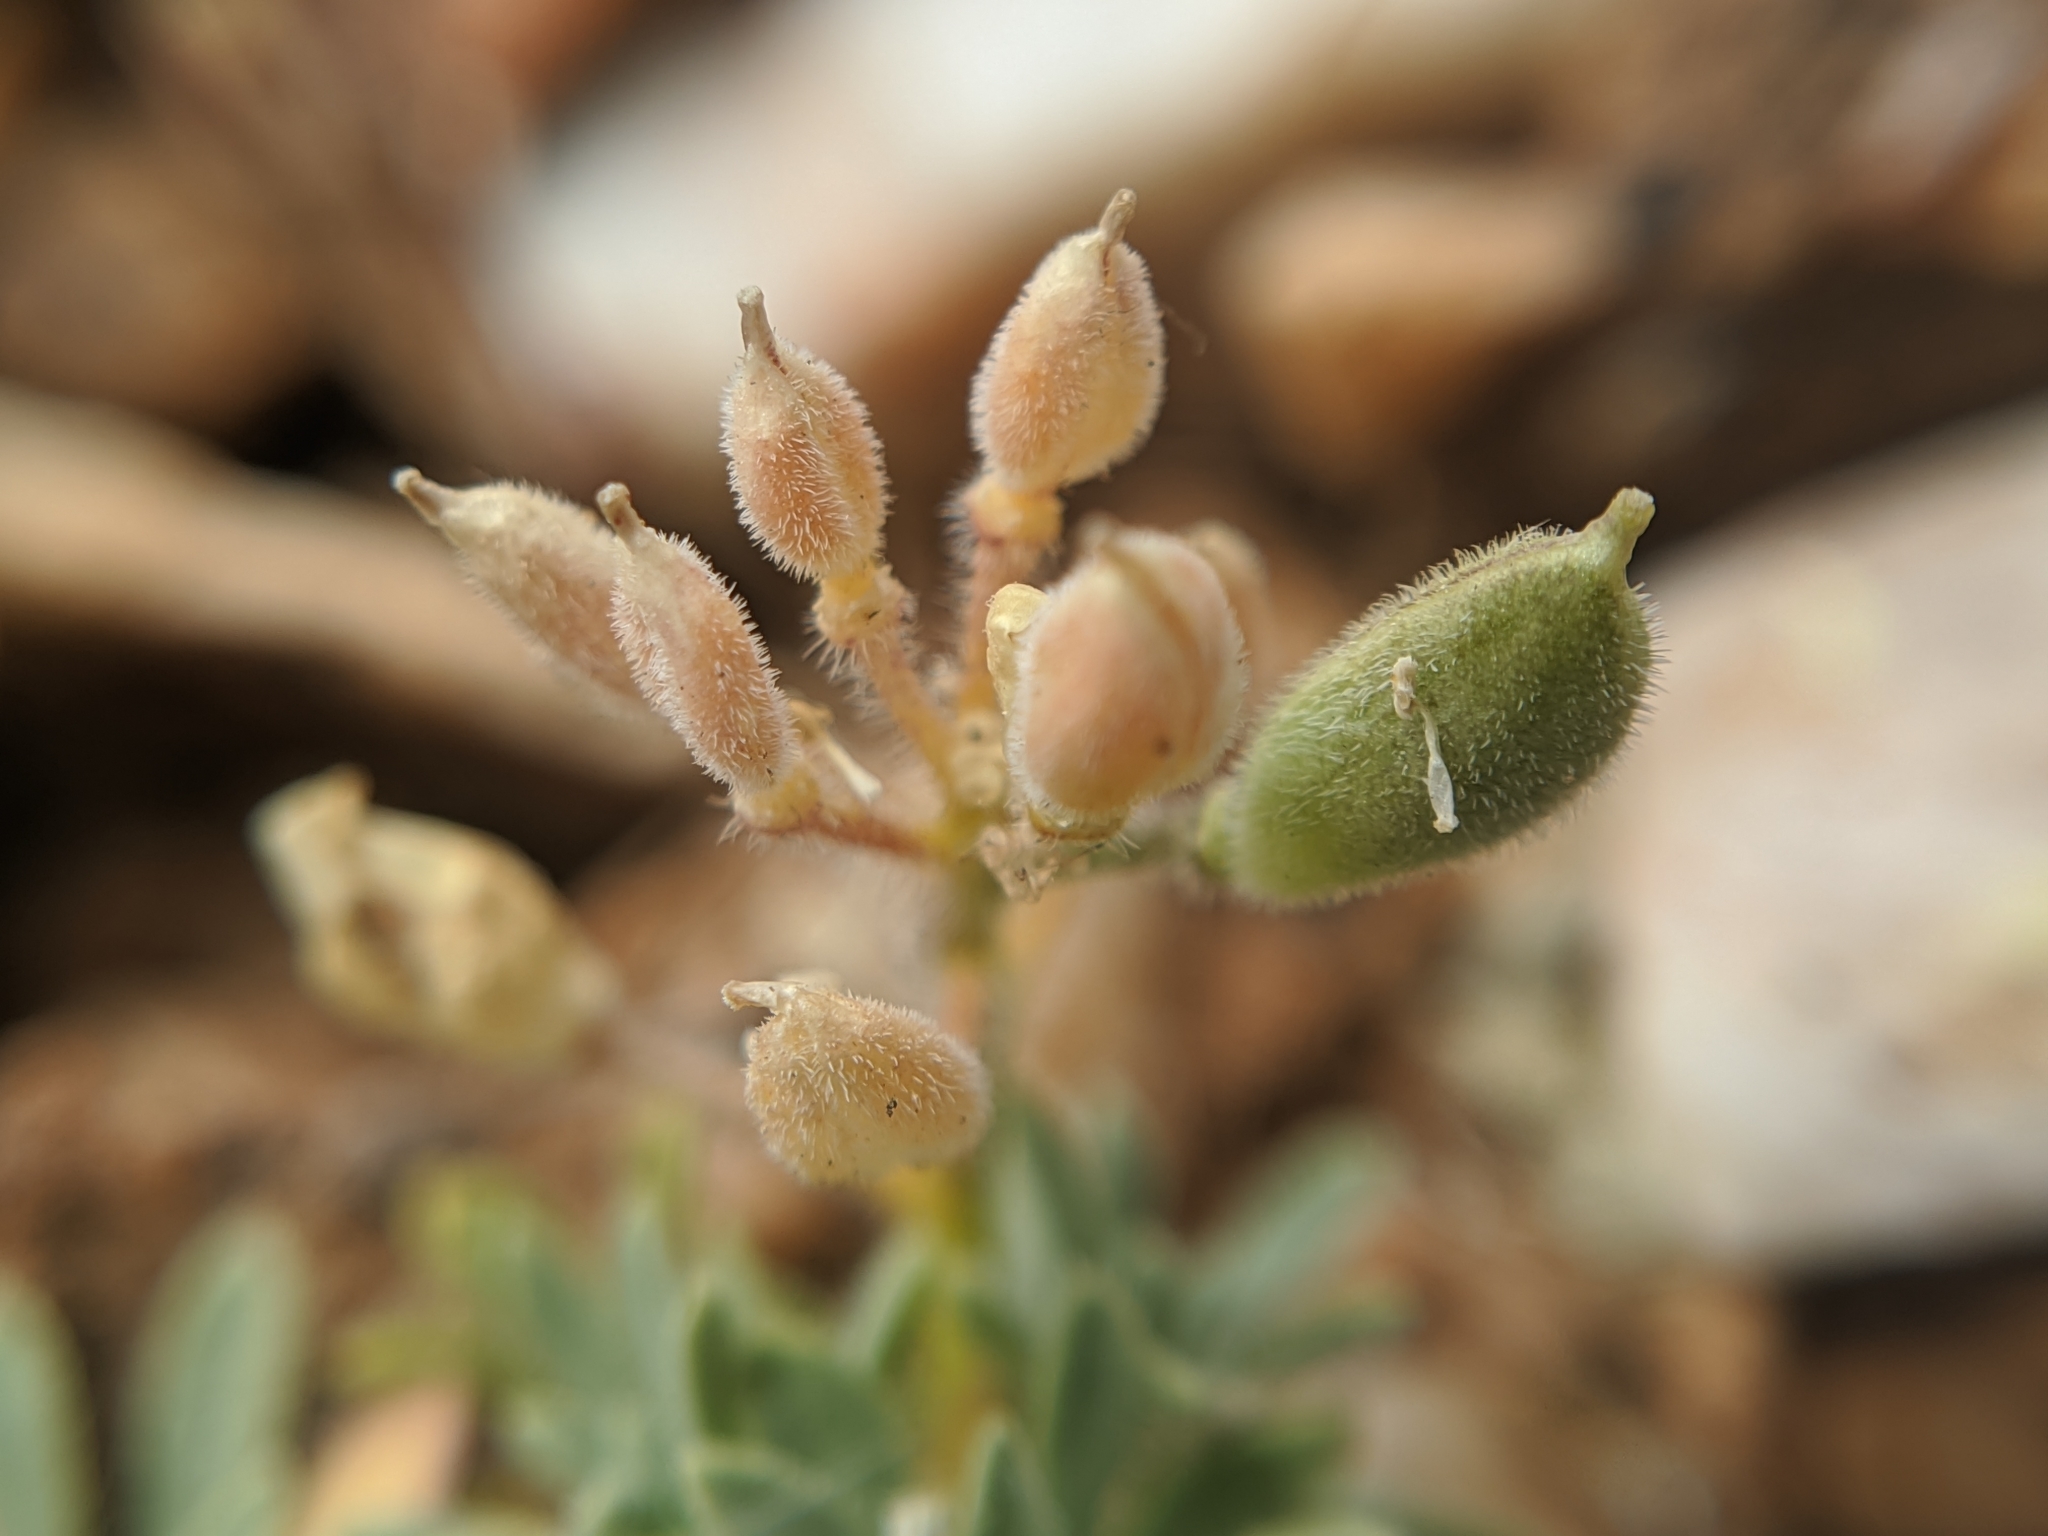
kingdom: Plantae
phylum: Tracheophyta
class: Magnoliopsida
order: Brassicales
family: Brassicaceae
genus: Cusickiella
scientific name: Cusickiella douglasii
